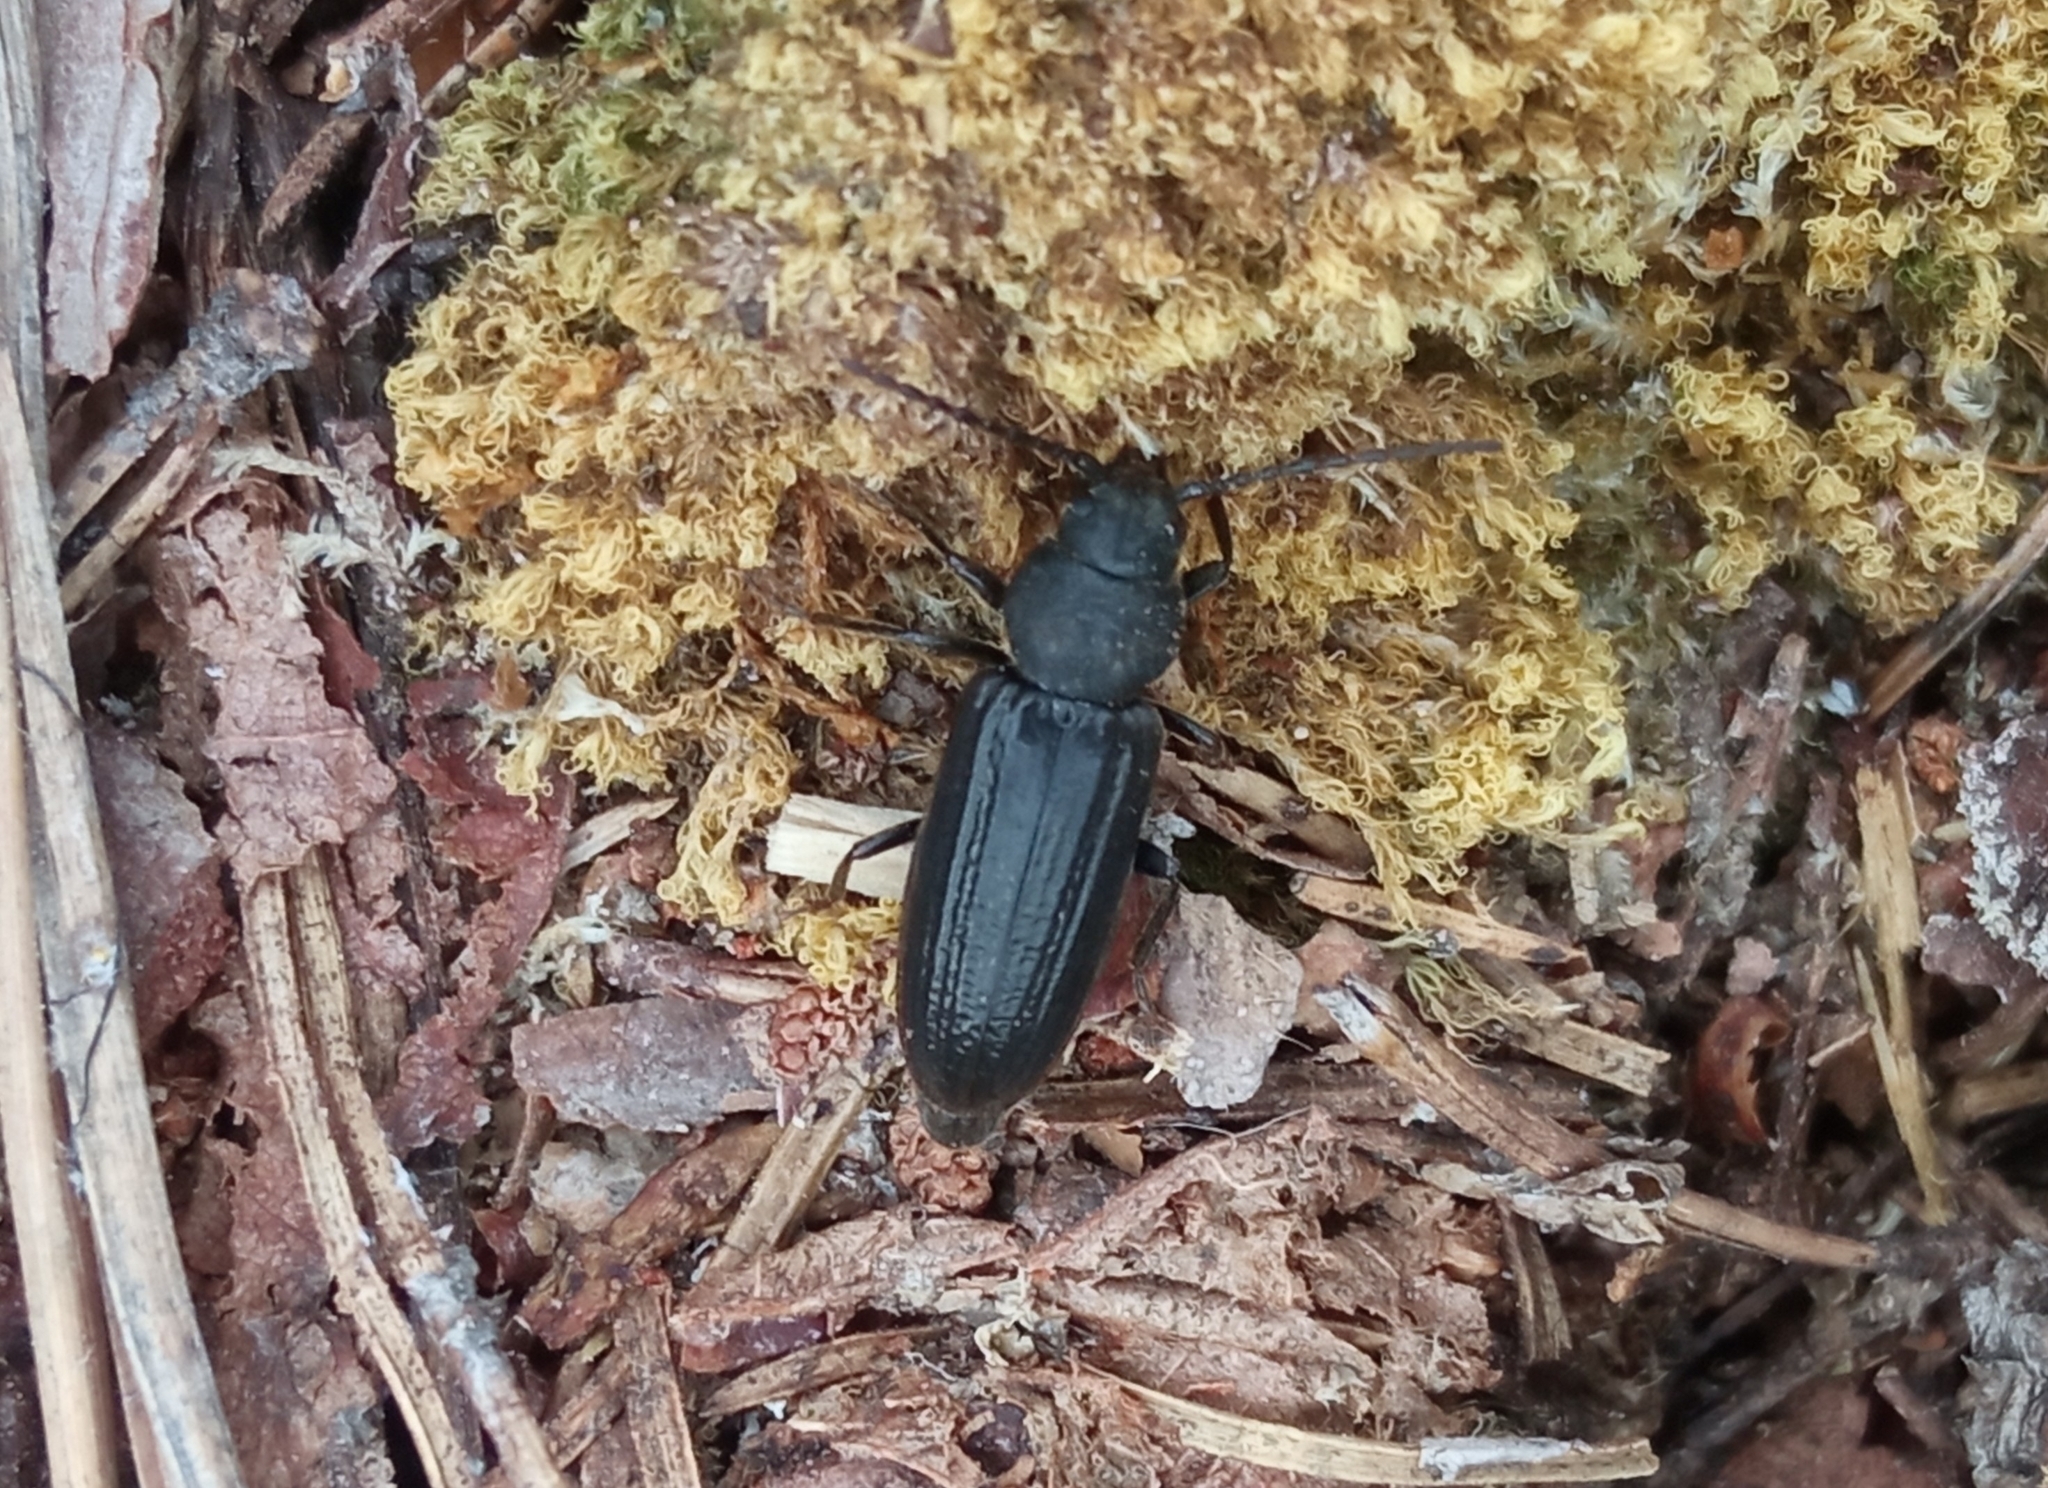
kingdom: Animalia
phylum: Arthropoda
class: Insecta
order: Coleoptera
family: Cerambycidae
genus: Asemum
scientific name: Asemum striatum
